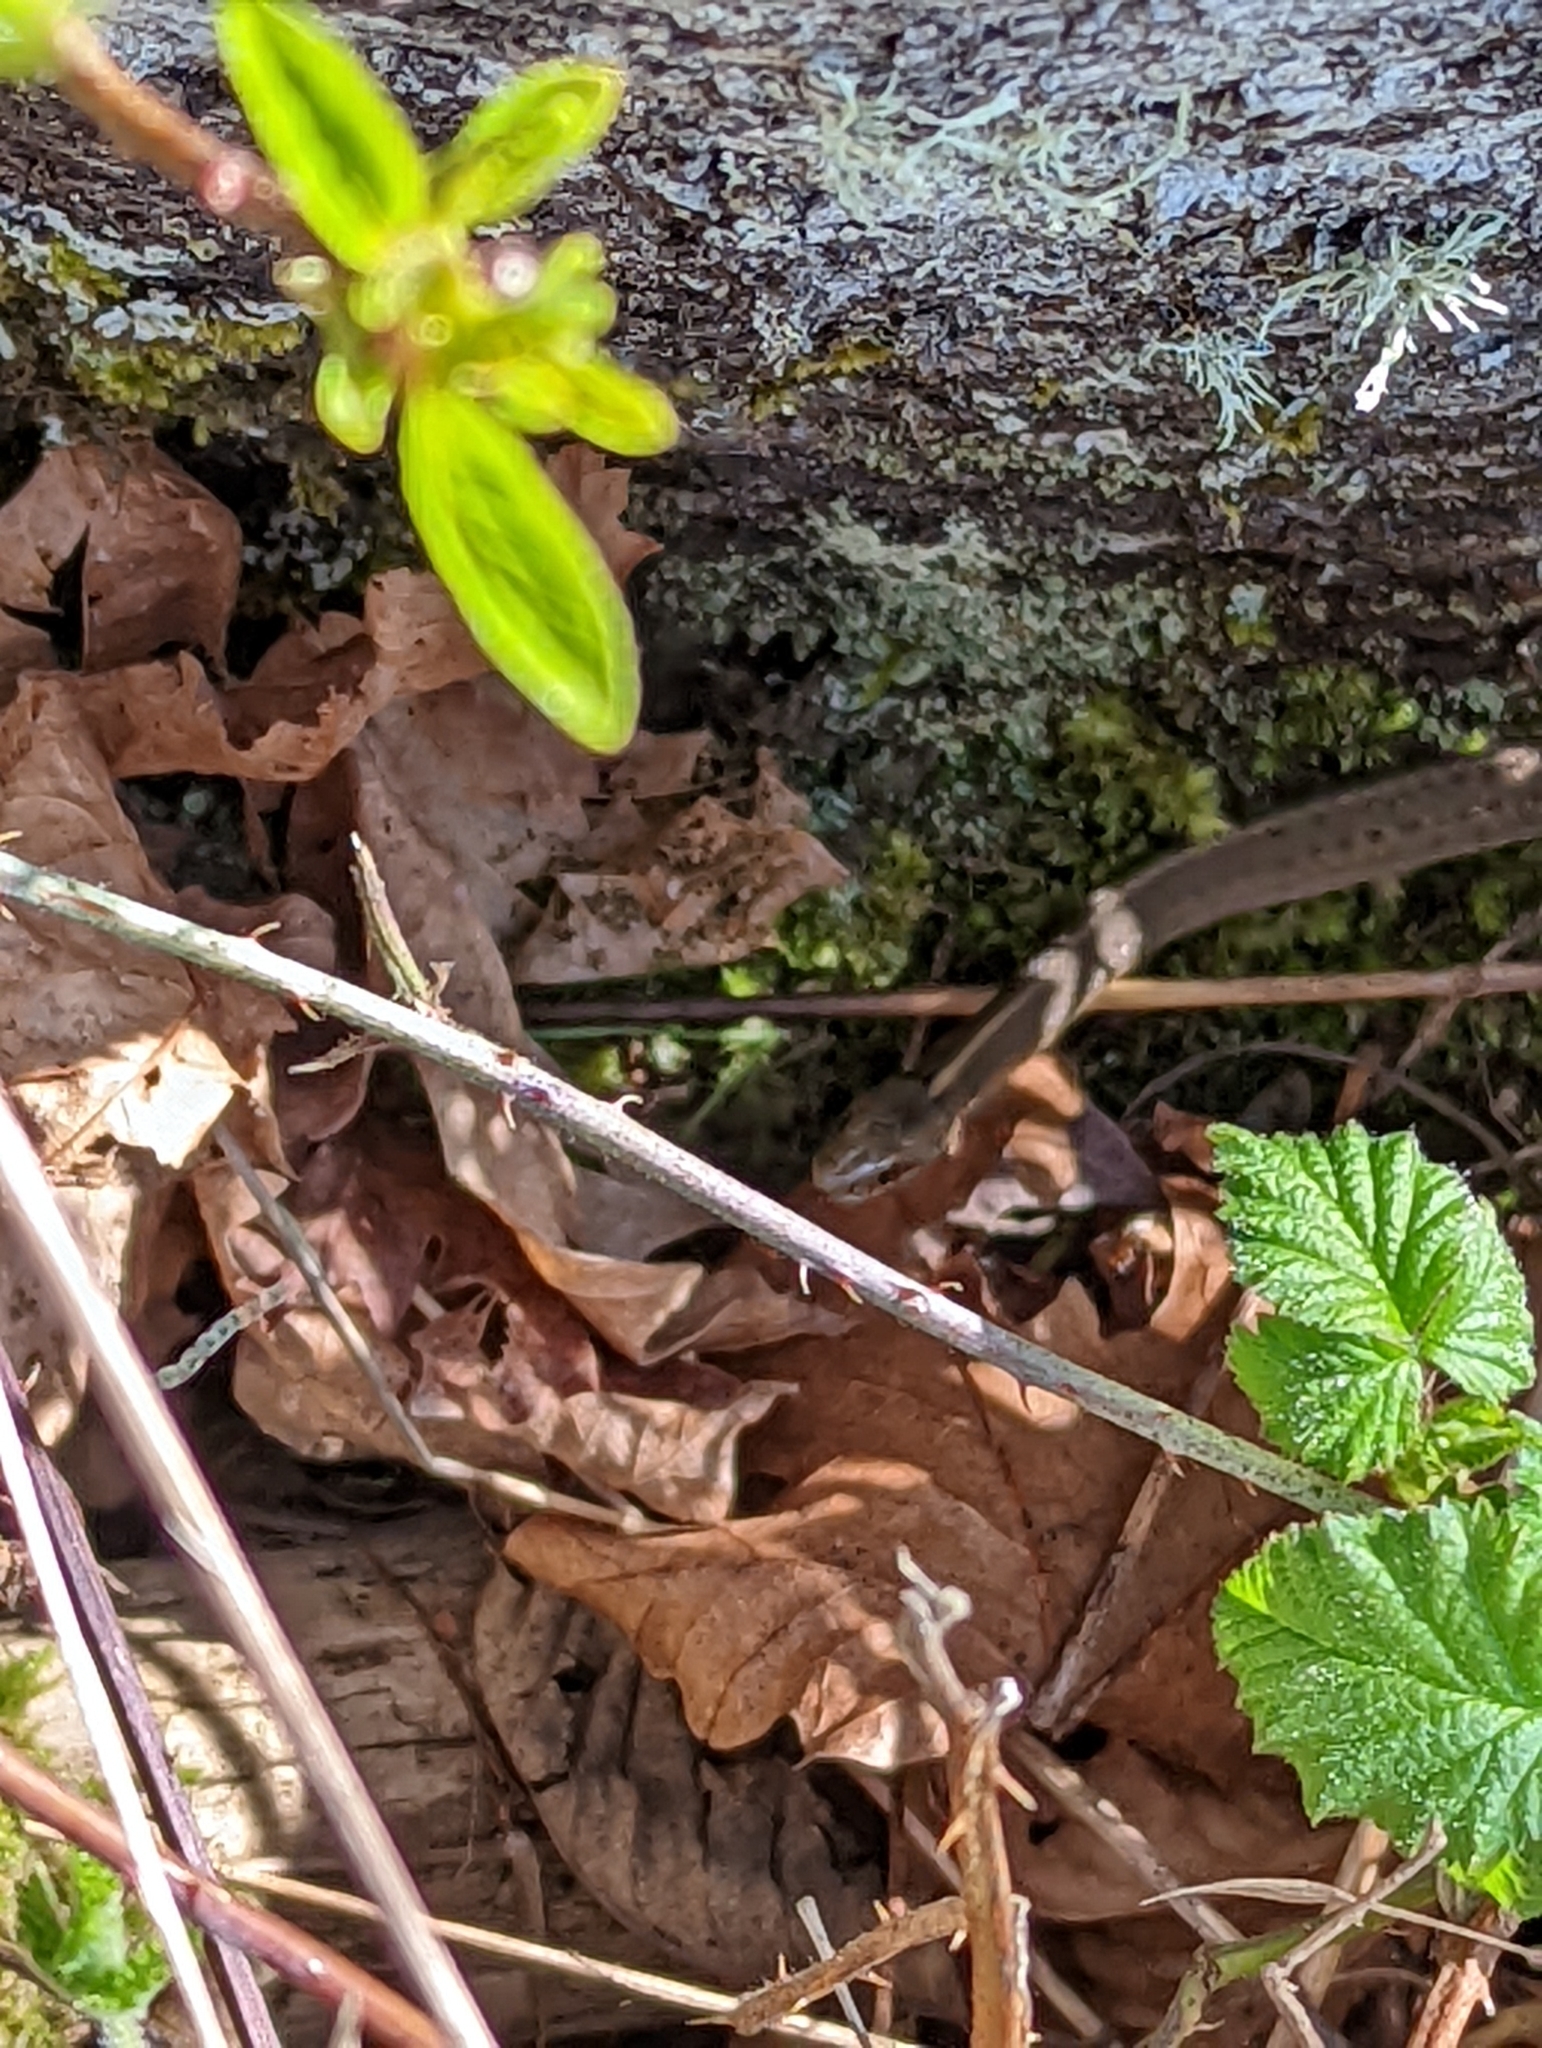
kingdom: Animalia
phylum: Chordata
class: Squamata
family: Colubridae
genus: Thamnophis
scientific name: Thamnophis ordinoides
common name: Northwestern garter snake
